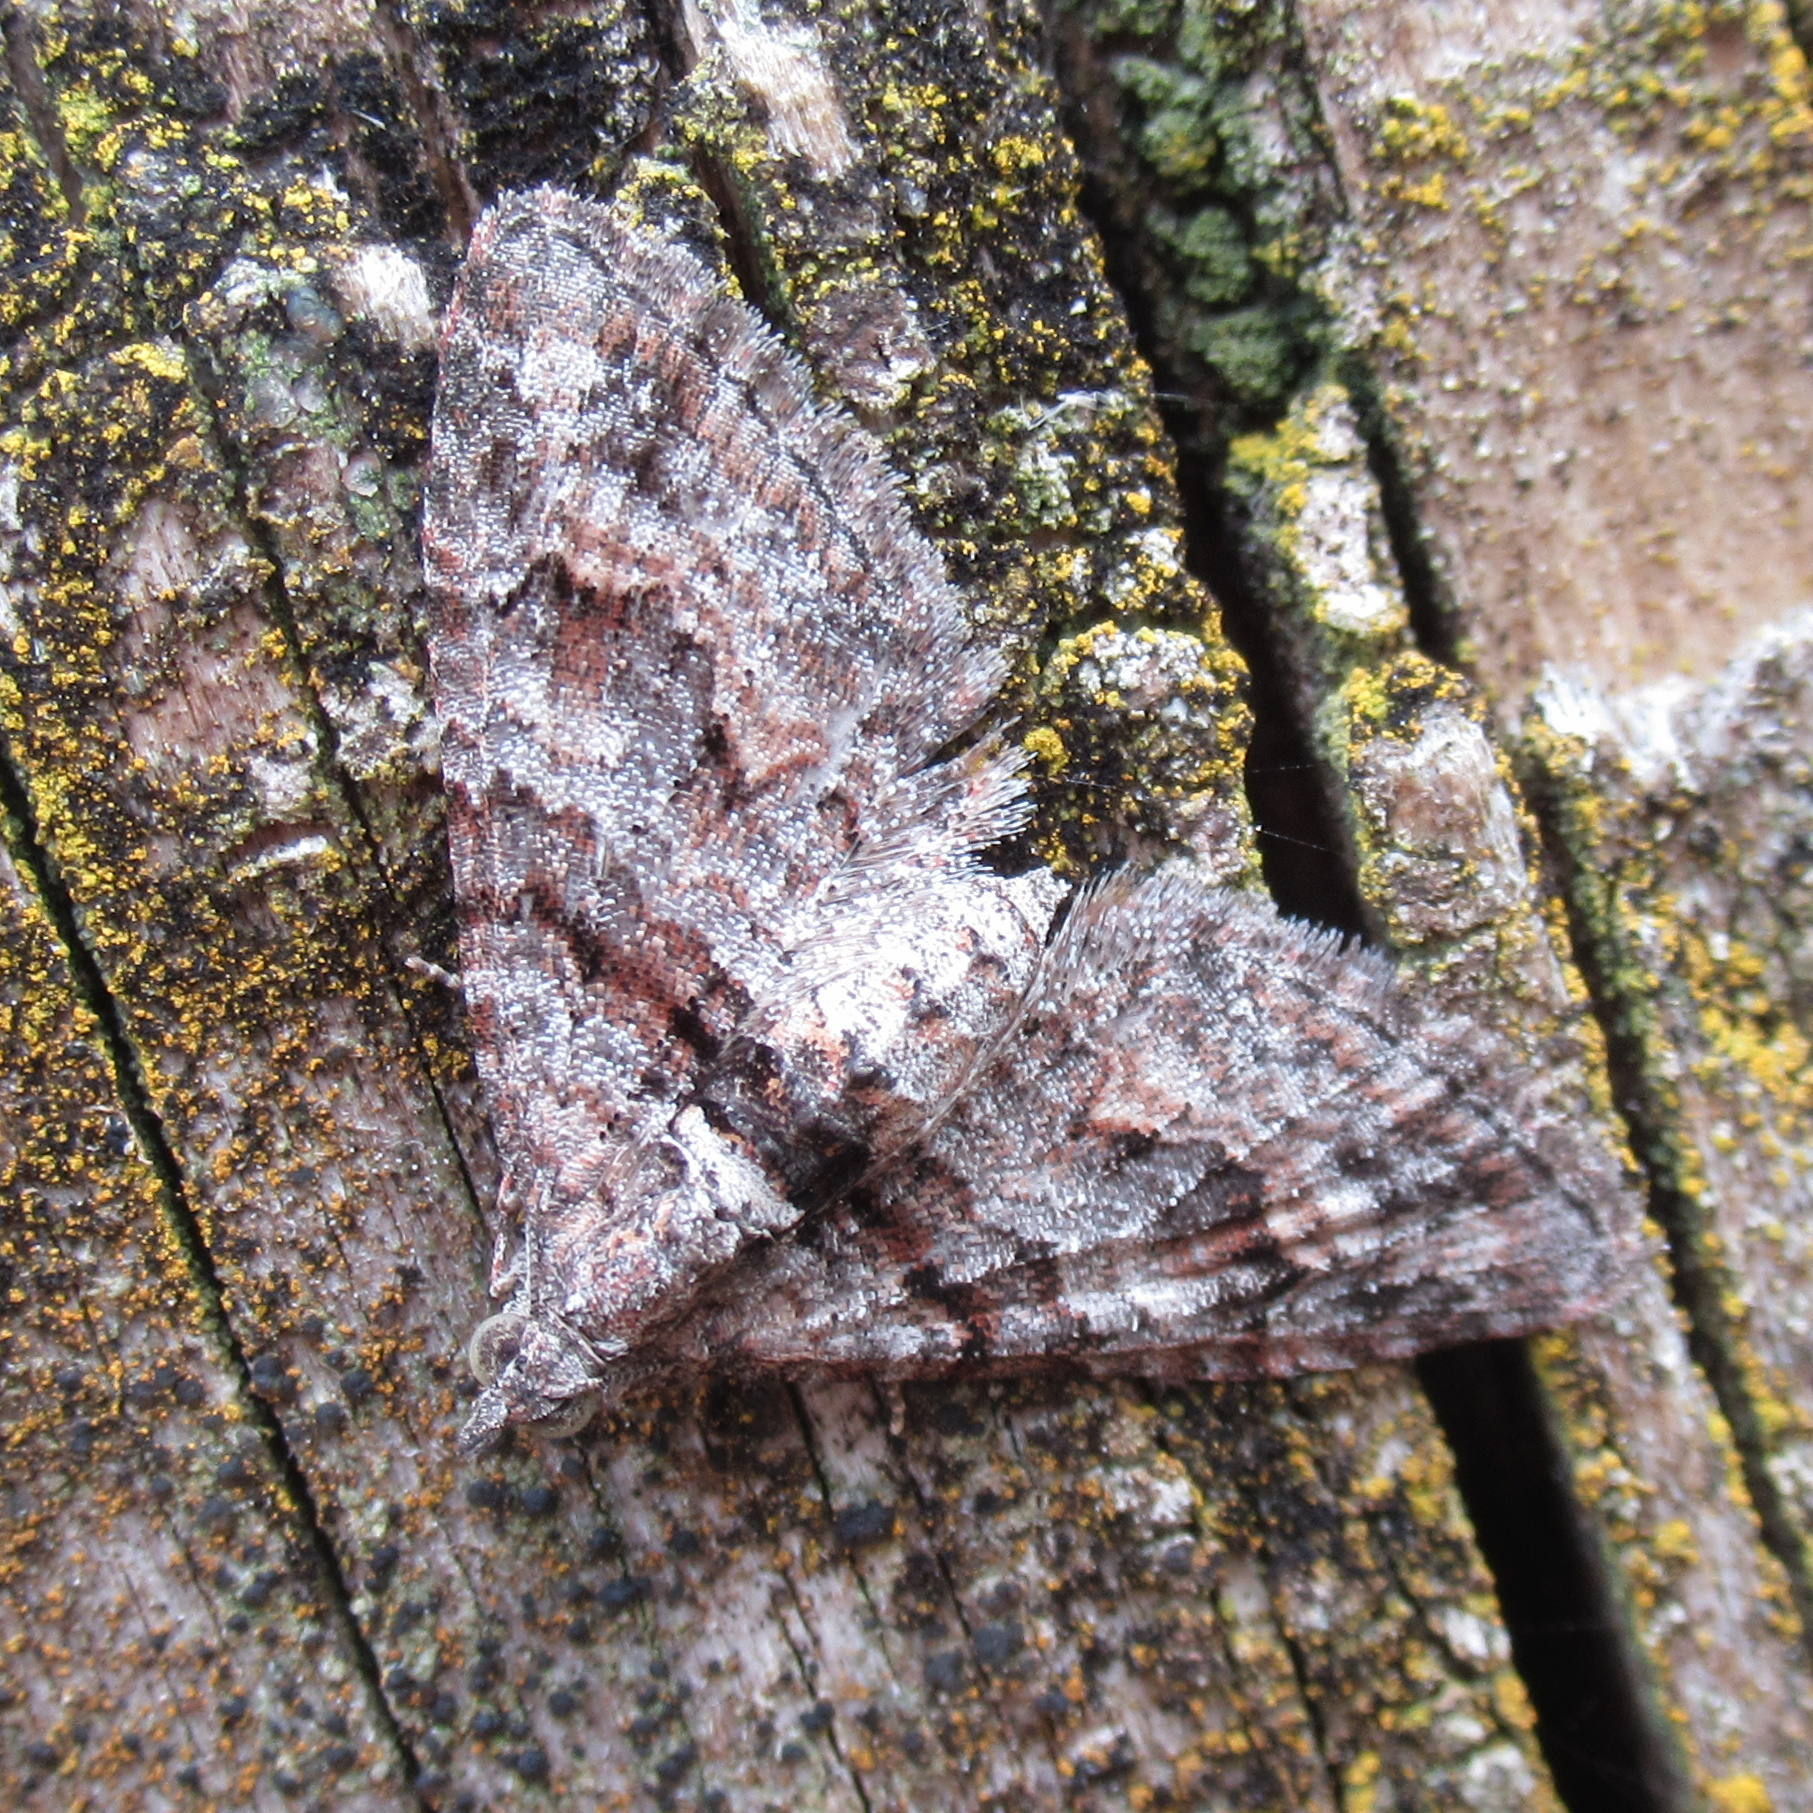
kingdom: Animalia
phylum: Arthropoda
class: Insecta
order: Lepidoptera
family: Geometridae
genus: Phrissogonus
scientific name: Phrissogonus laticostata
